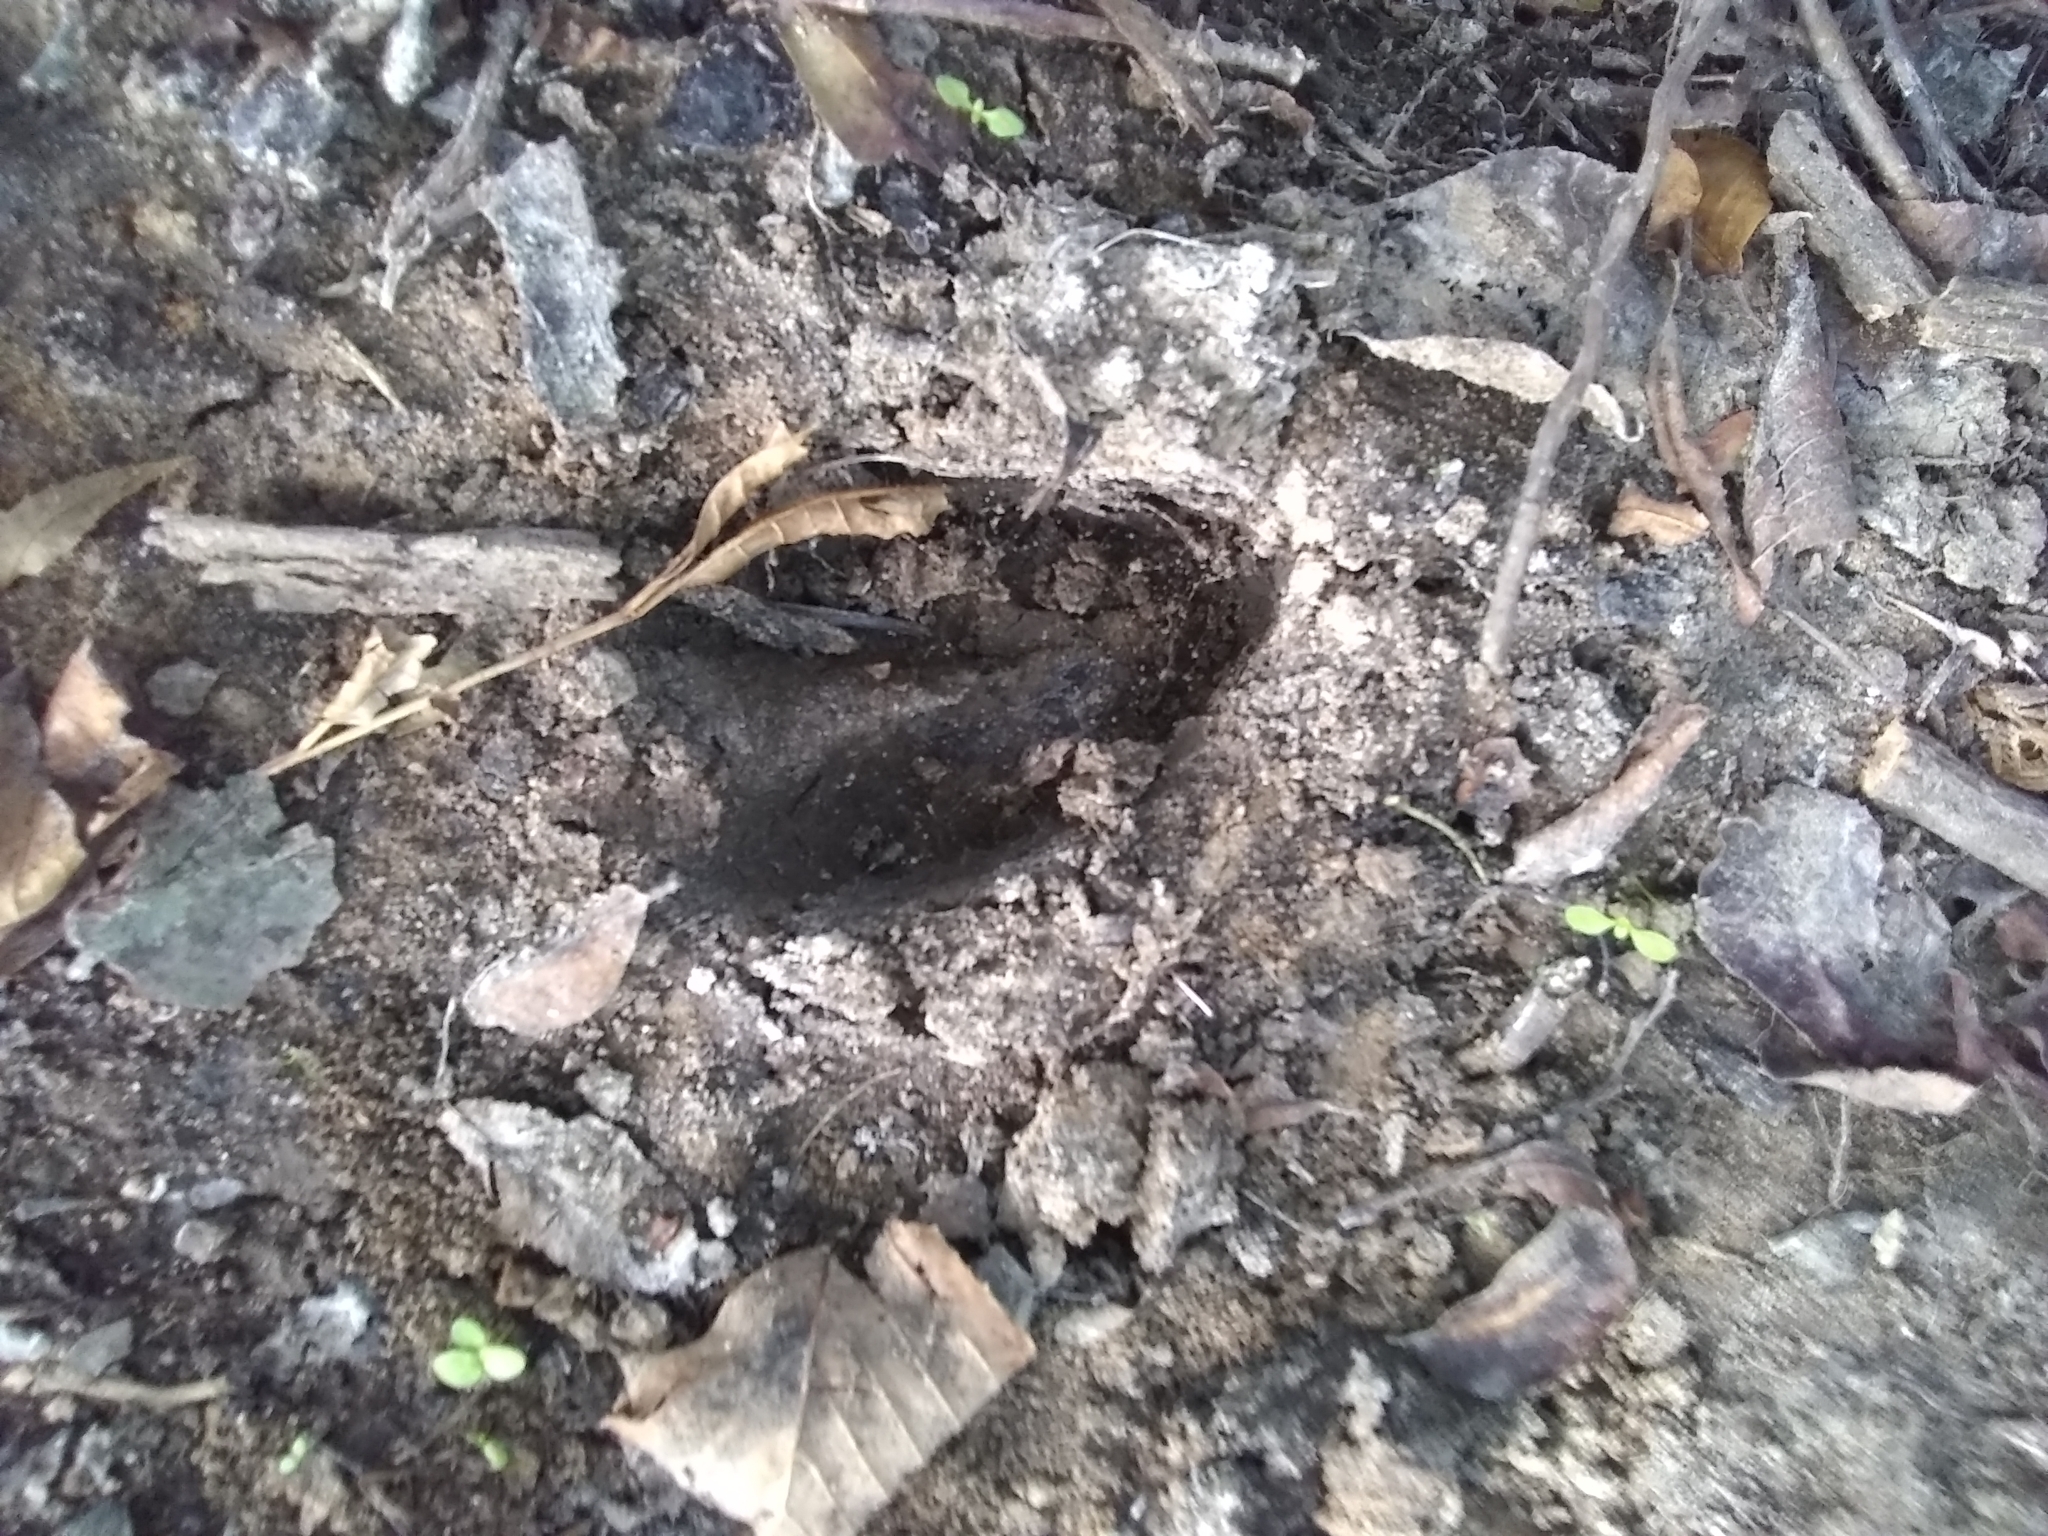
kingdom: Animalia
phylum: Chordata
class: Mammalia
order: Artiodactyla
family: Cervidae
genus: Odocoileus
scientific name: Odocoileus virginianus
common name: White-tailed deer
